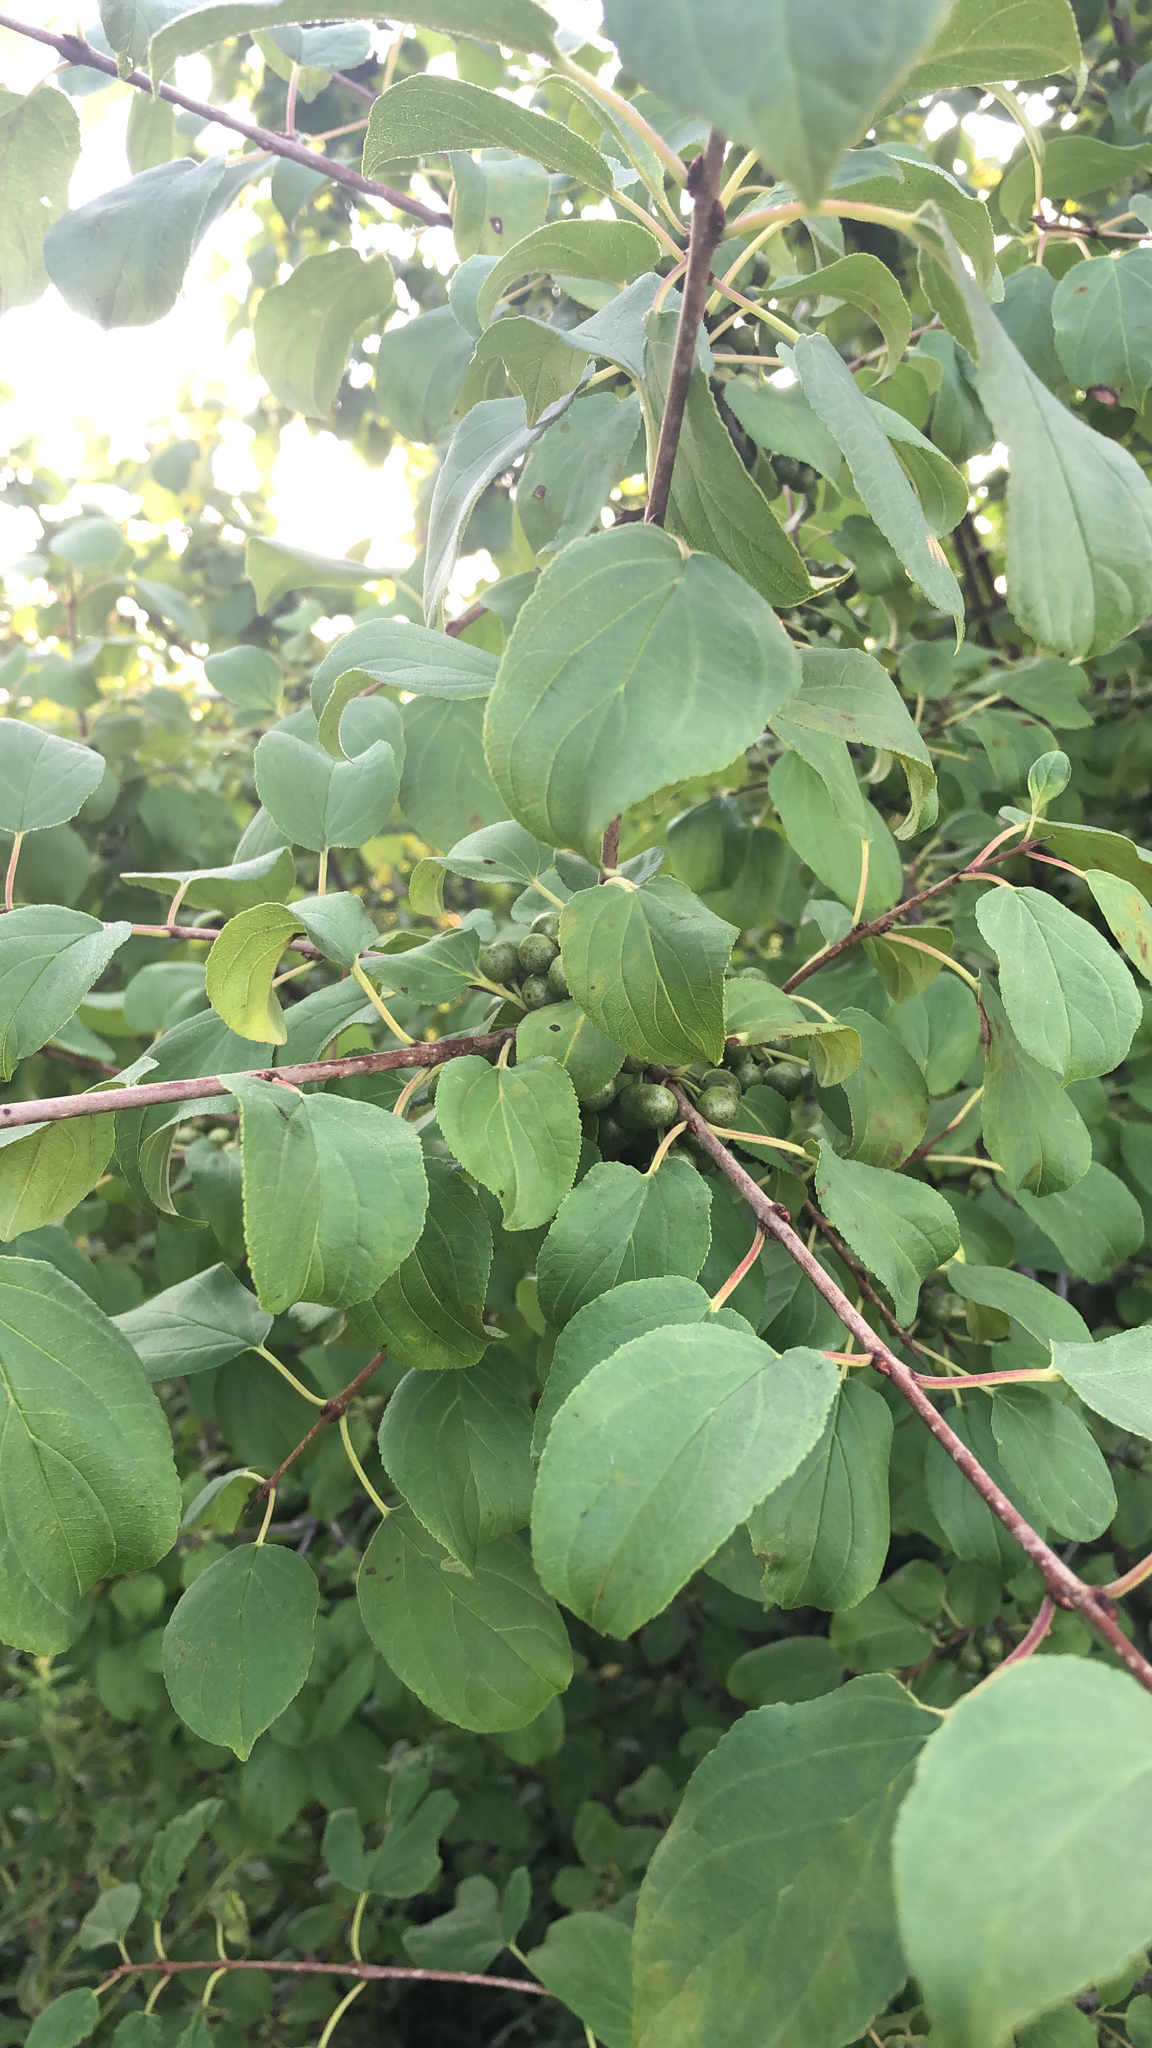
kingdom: Plantae
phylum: Tracheophyta
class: Magnoliopsida
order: Rosales
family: Rhamnaceae
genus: Rhamnus
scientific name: Rhamnus cathartica
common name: Common buckthorn
